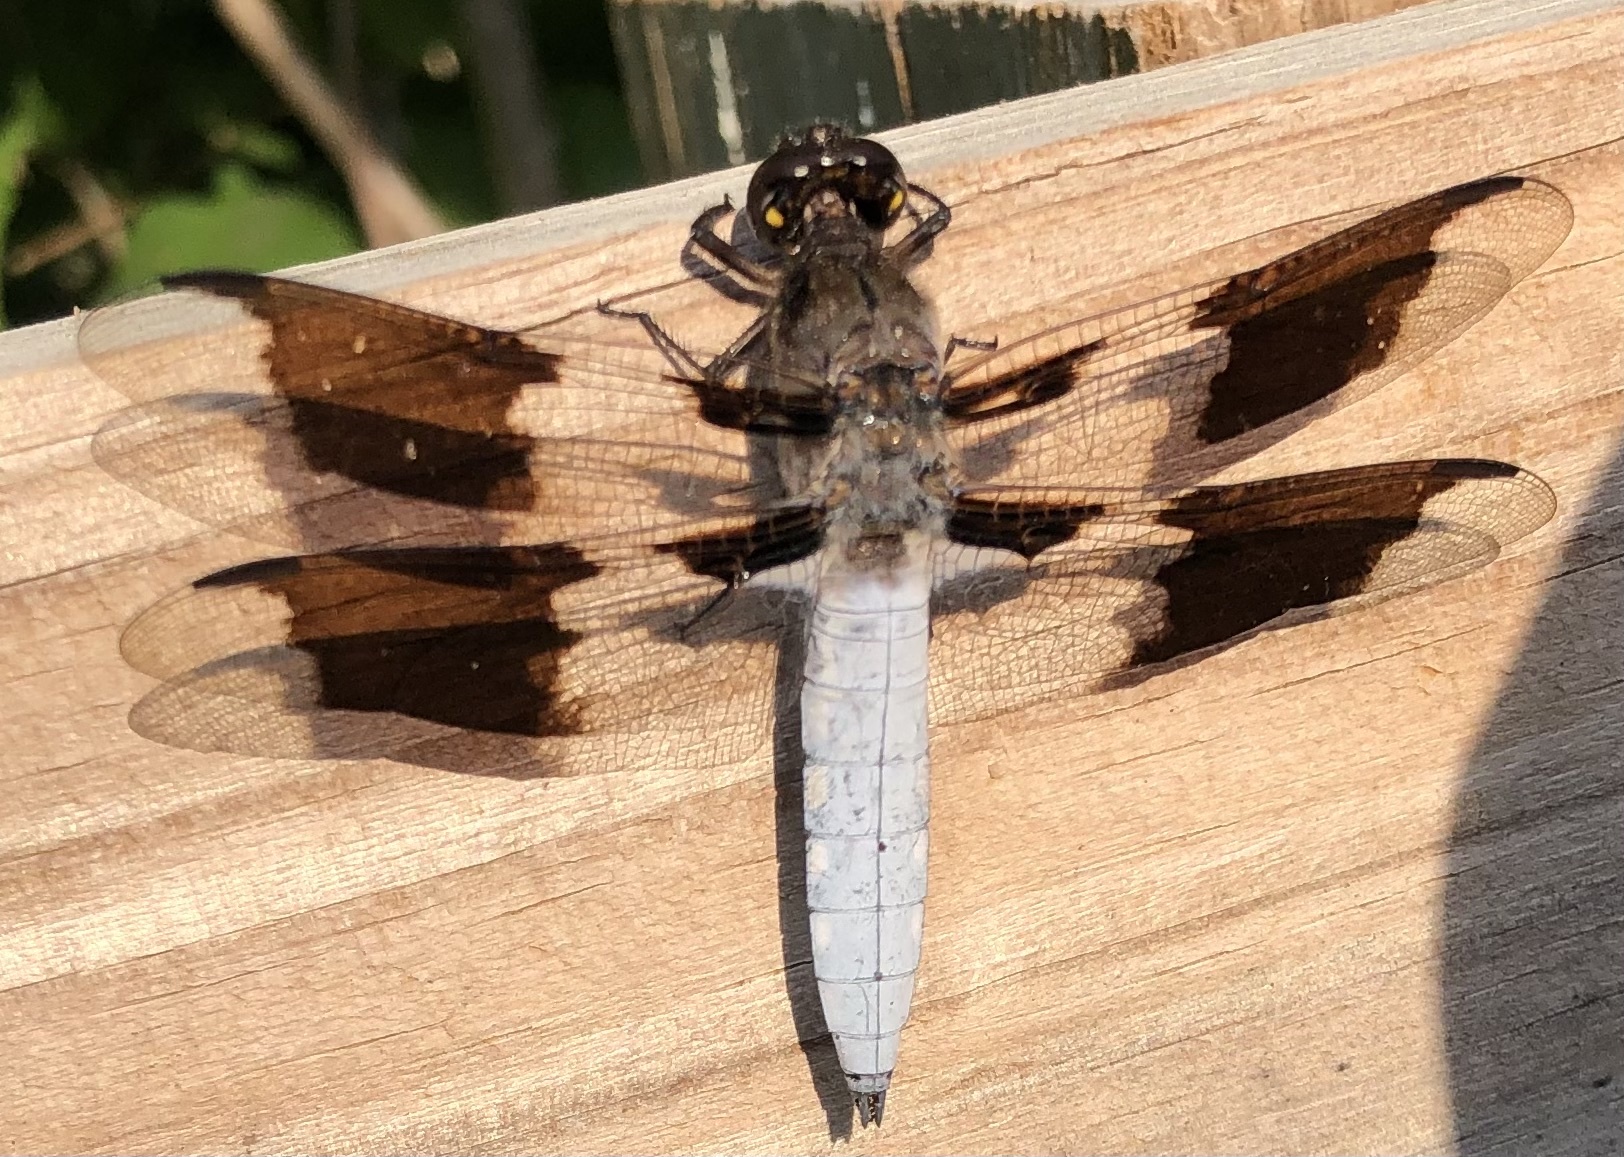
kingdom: Animalia
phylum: Arthropoda
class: Insecta
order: Odonata
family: Libellulidae
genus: Plathemis
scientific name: Plathemis lydia
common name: Common whitetail
